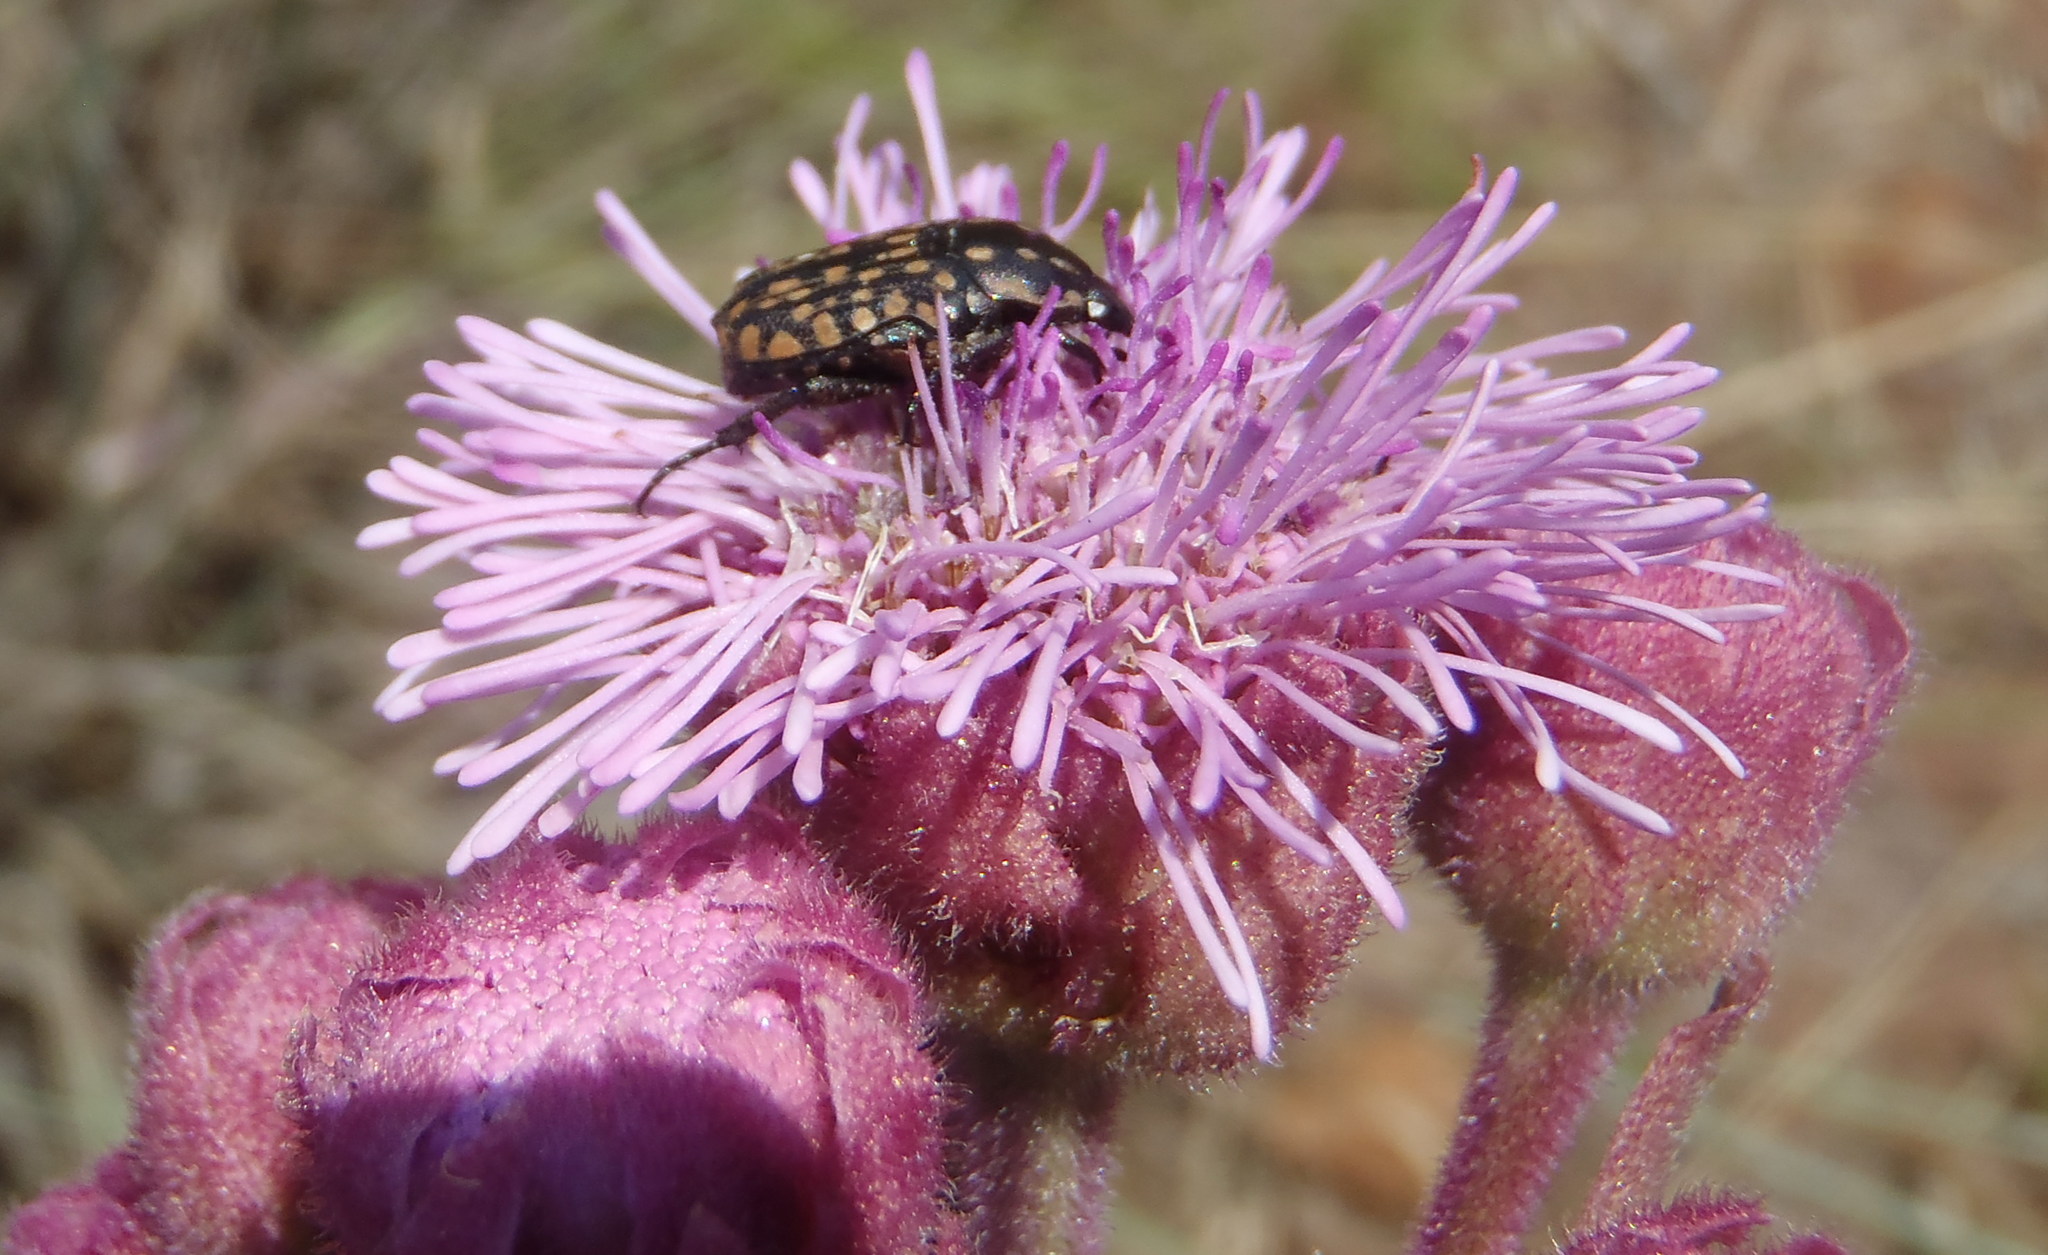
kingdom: Animalia
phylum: Arthropoda
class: Insecta
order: Coleoptera
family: Scarabaeidae
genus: Cyrtothyrea
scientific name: Cyrtothyrea testaceoguttata
